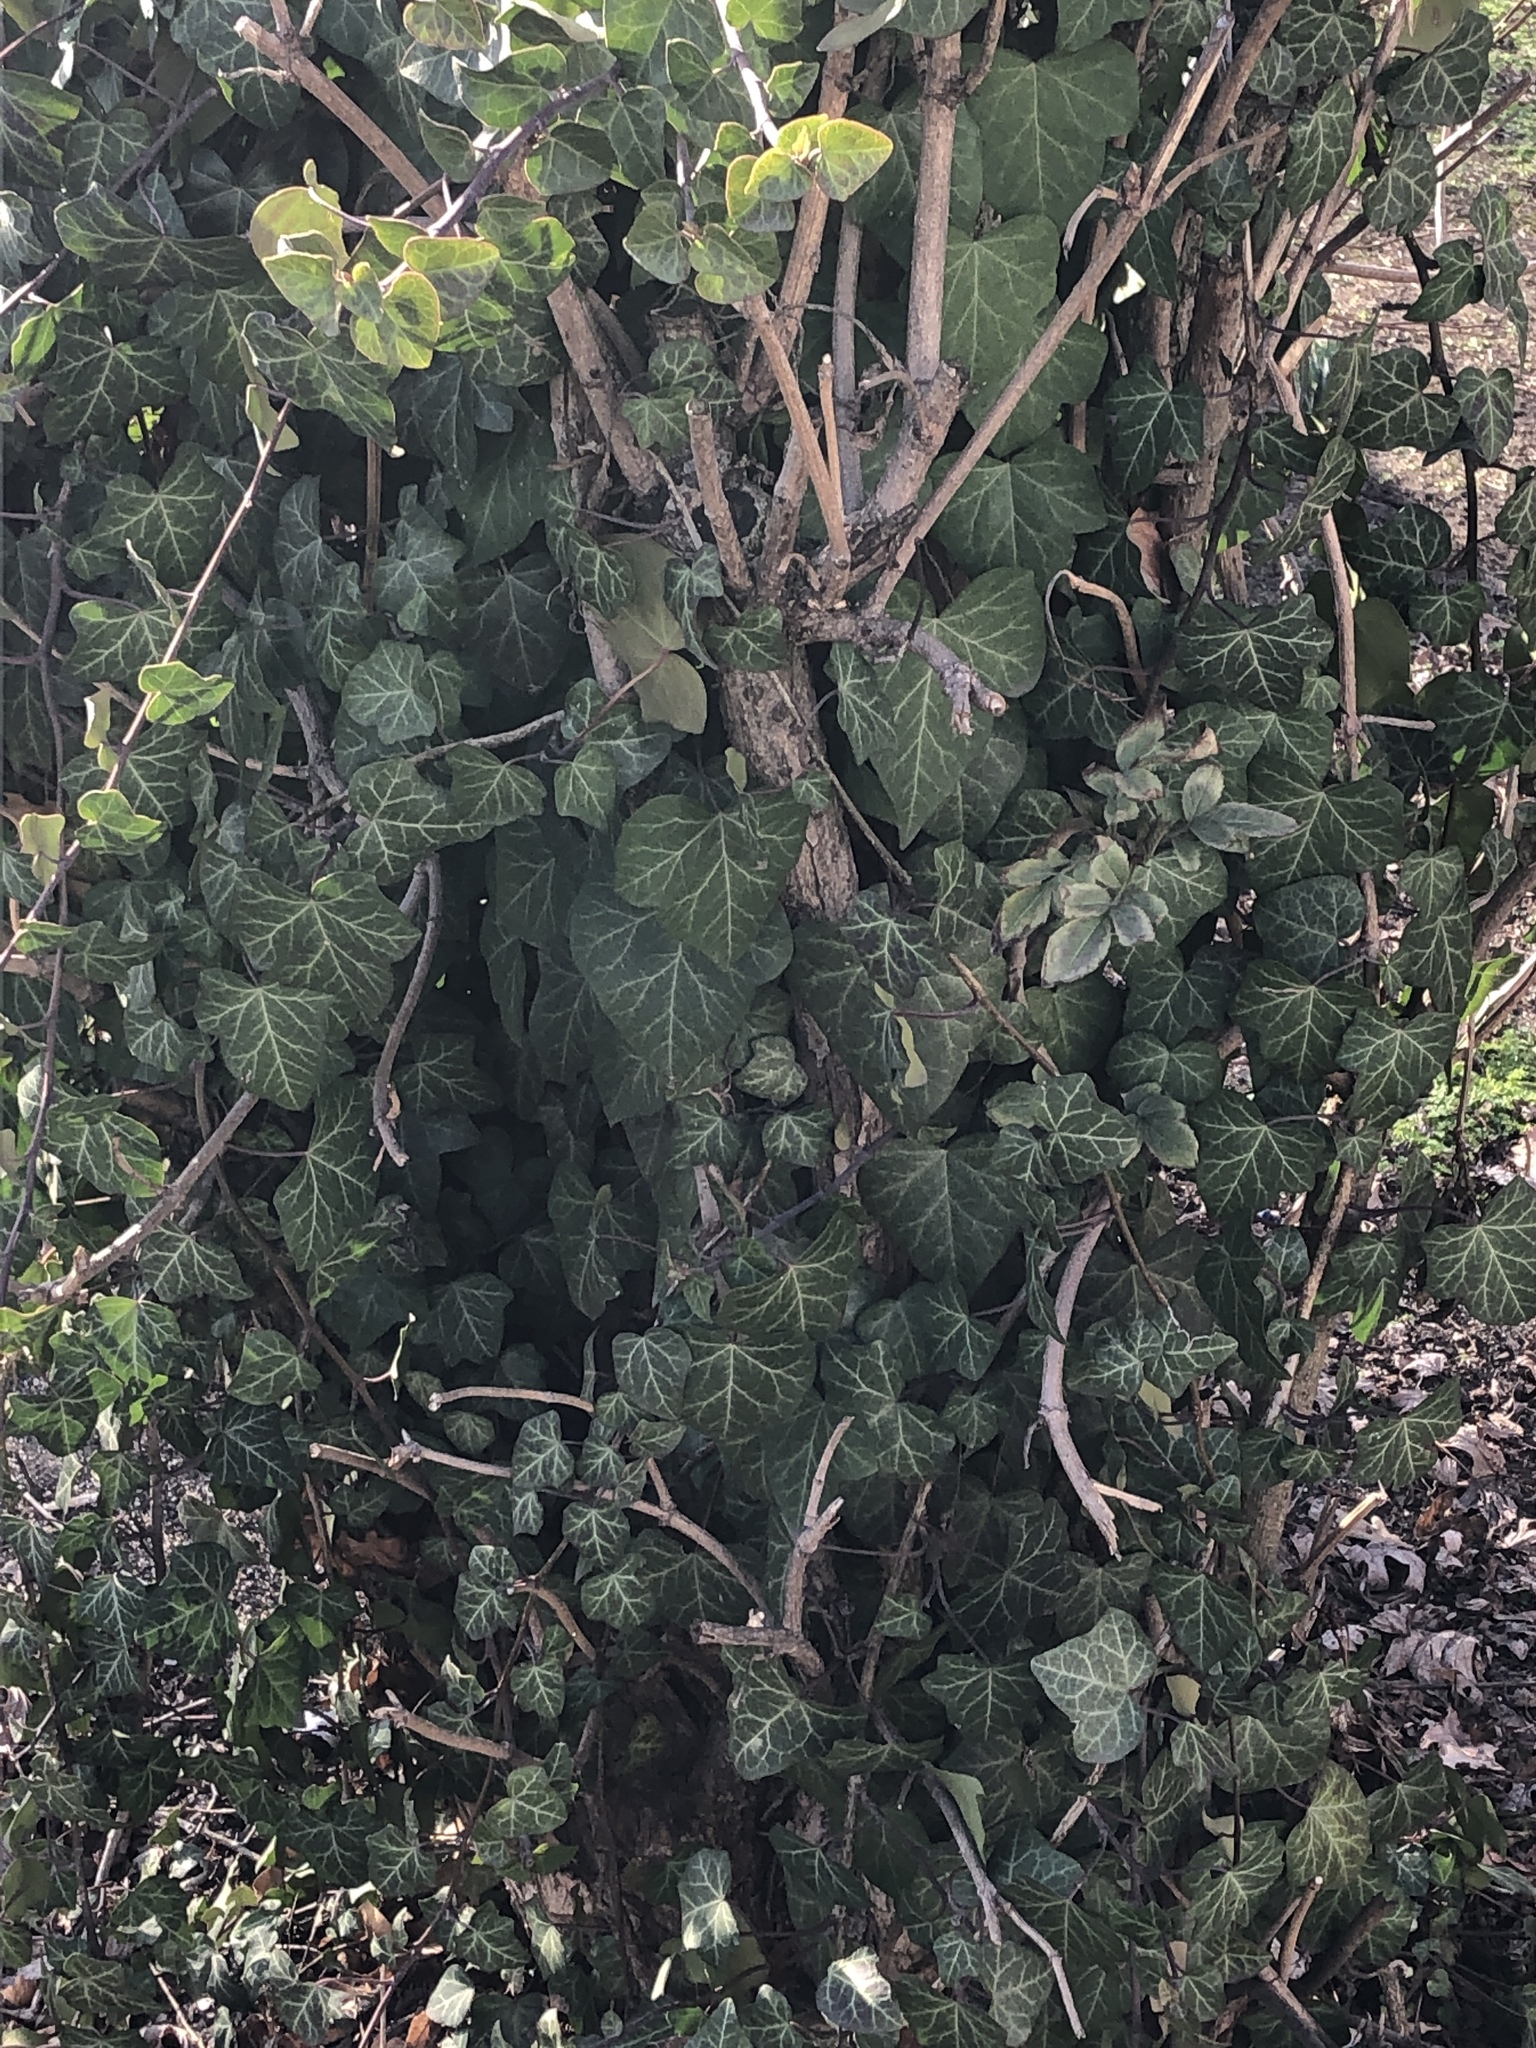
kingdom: Plantae
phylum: Tracheophyta
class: Magnoliopsida
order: Apiales
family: Araliaceae
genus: Hedera
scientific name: Hedera helix
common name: Ivy
